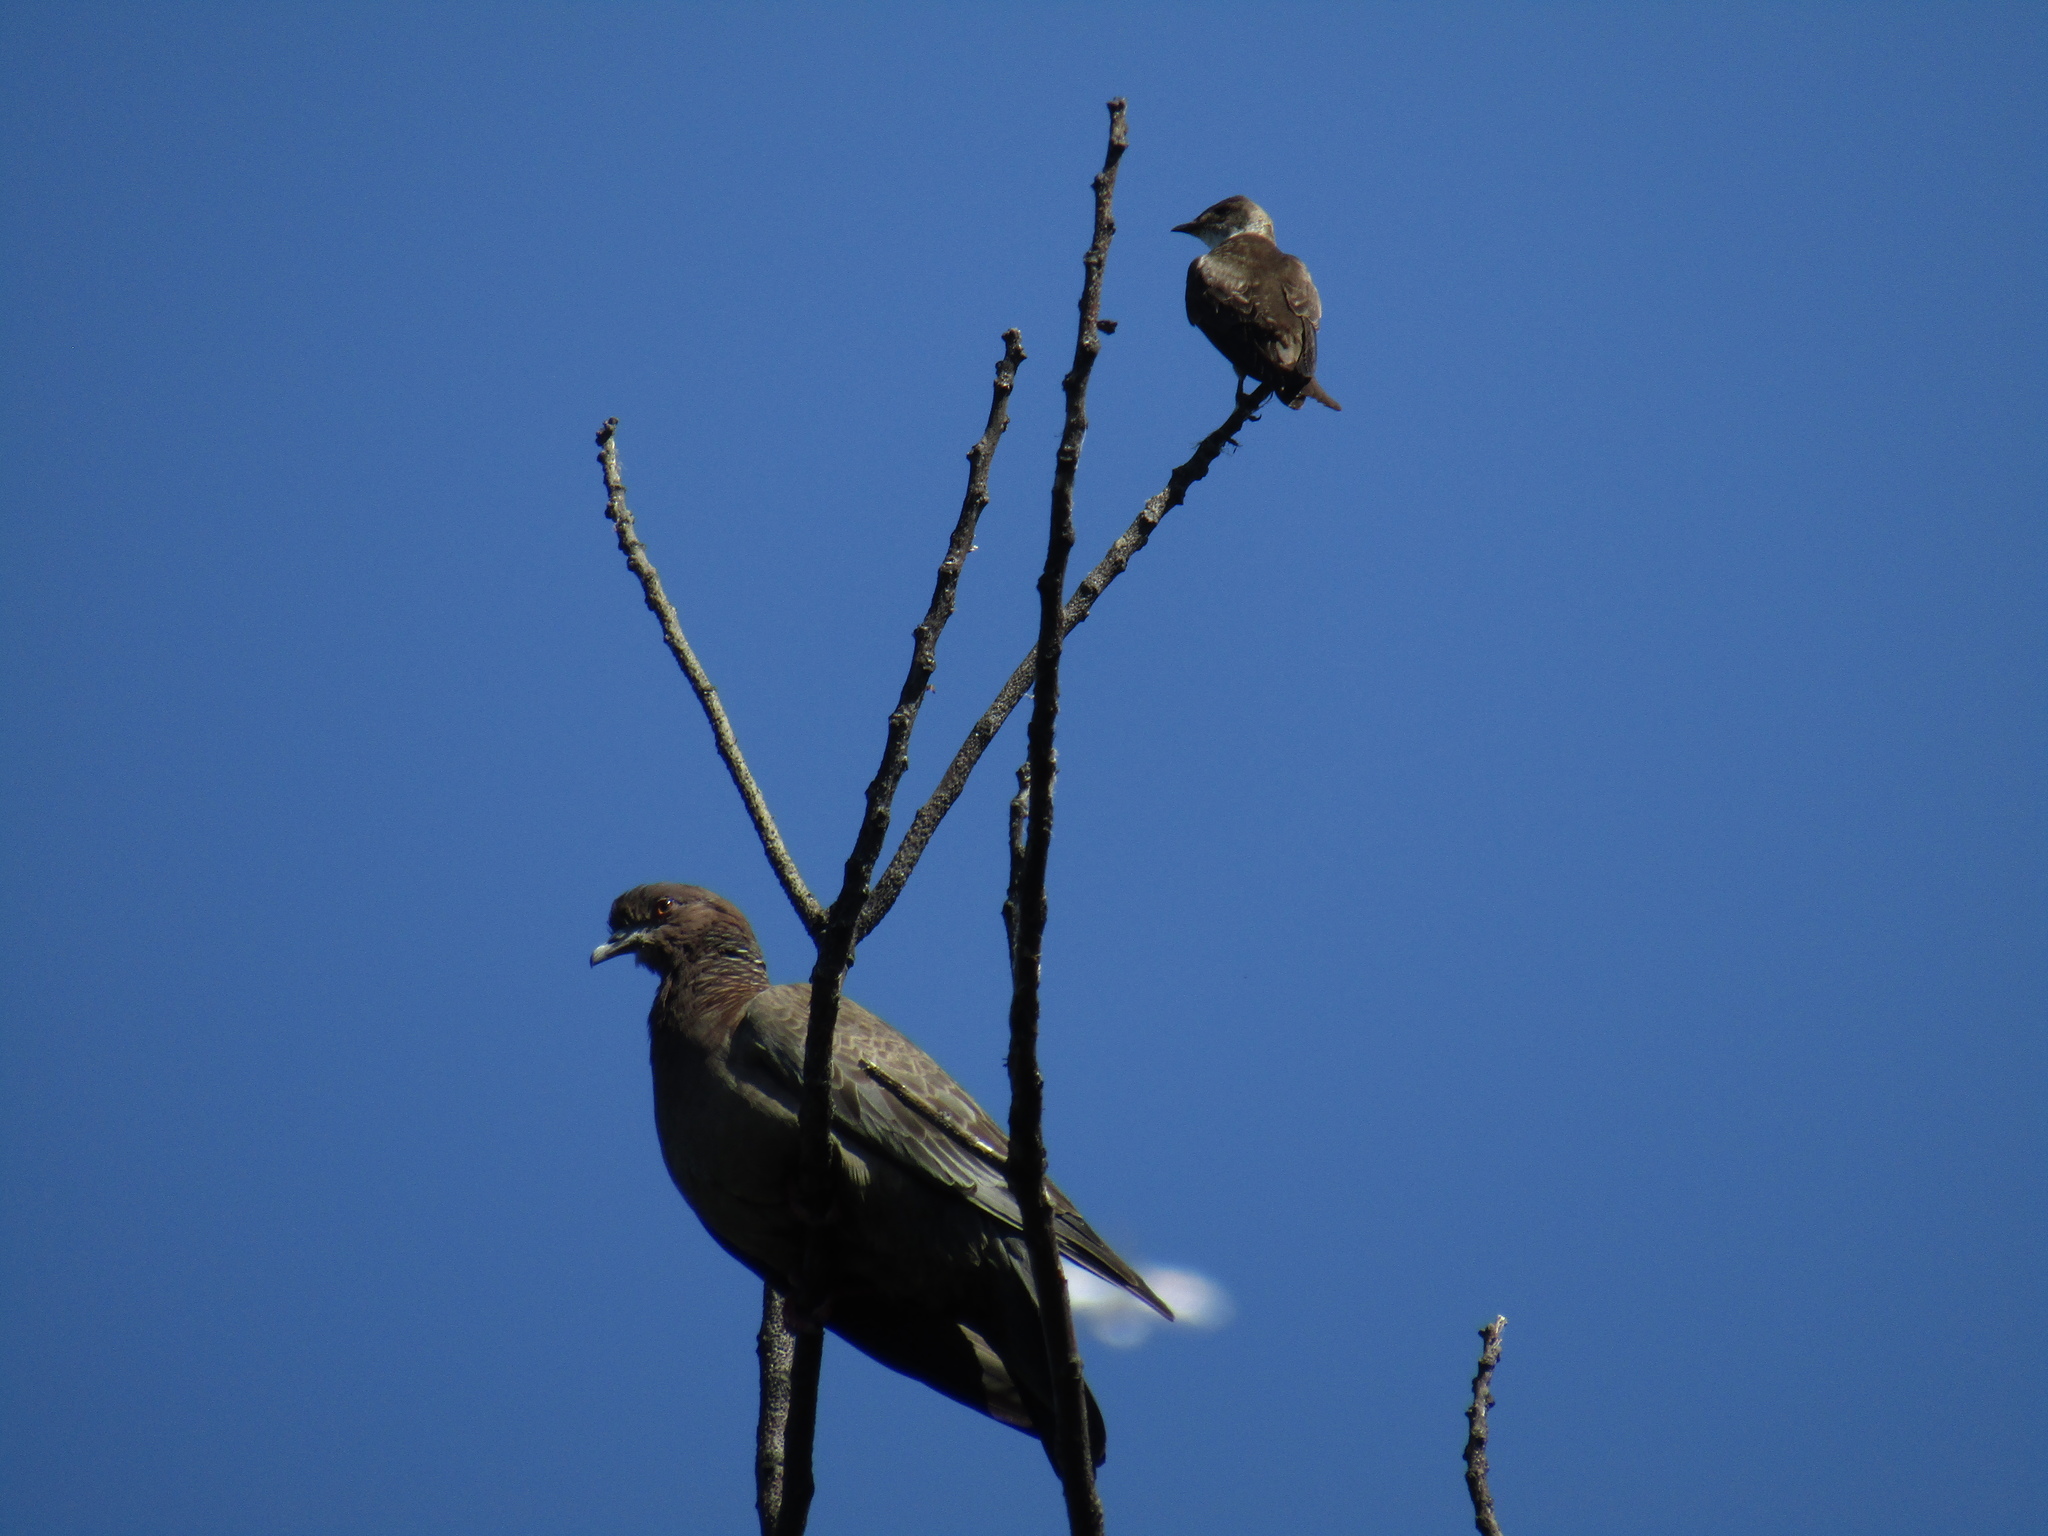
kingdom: Animalia
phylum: Chordata
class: Aves
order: Columbiformes
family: Columbidae
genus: Patagioenas
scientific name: Patagioenas picazuro
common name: Picazuro pigeon
